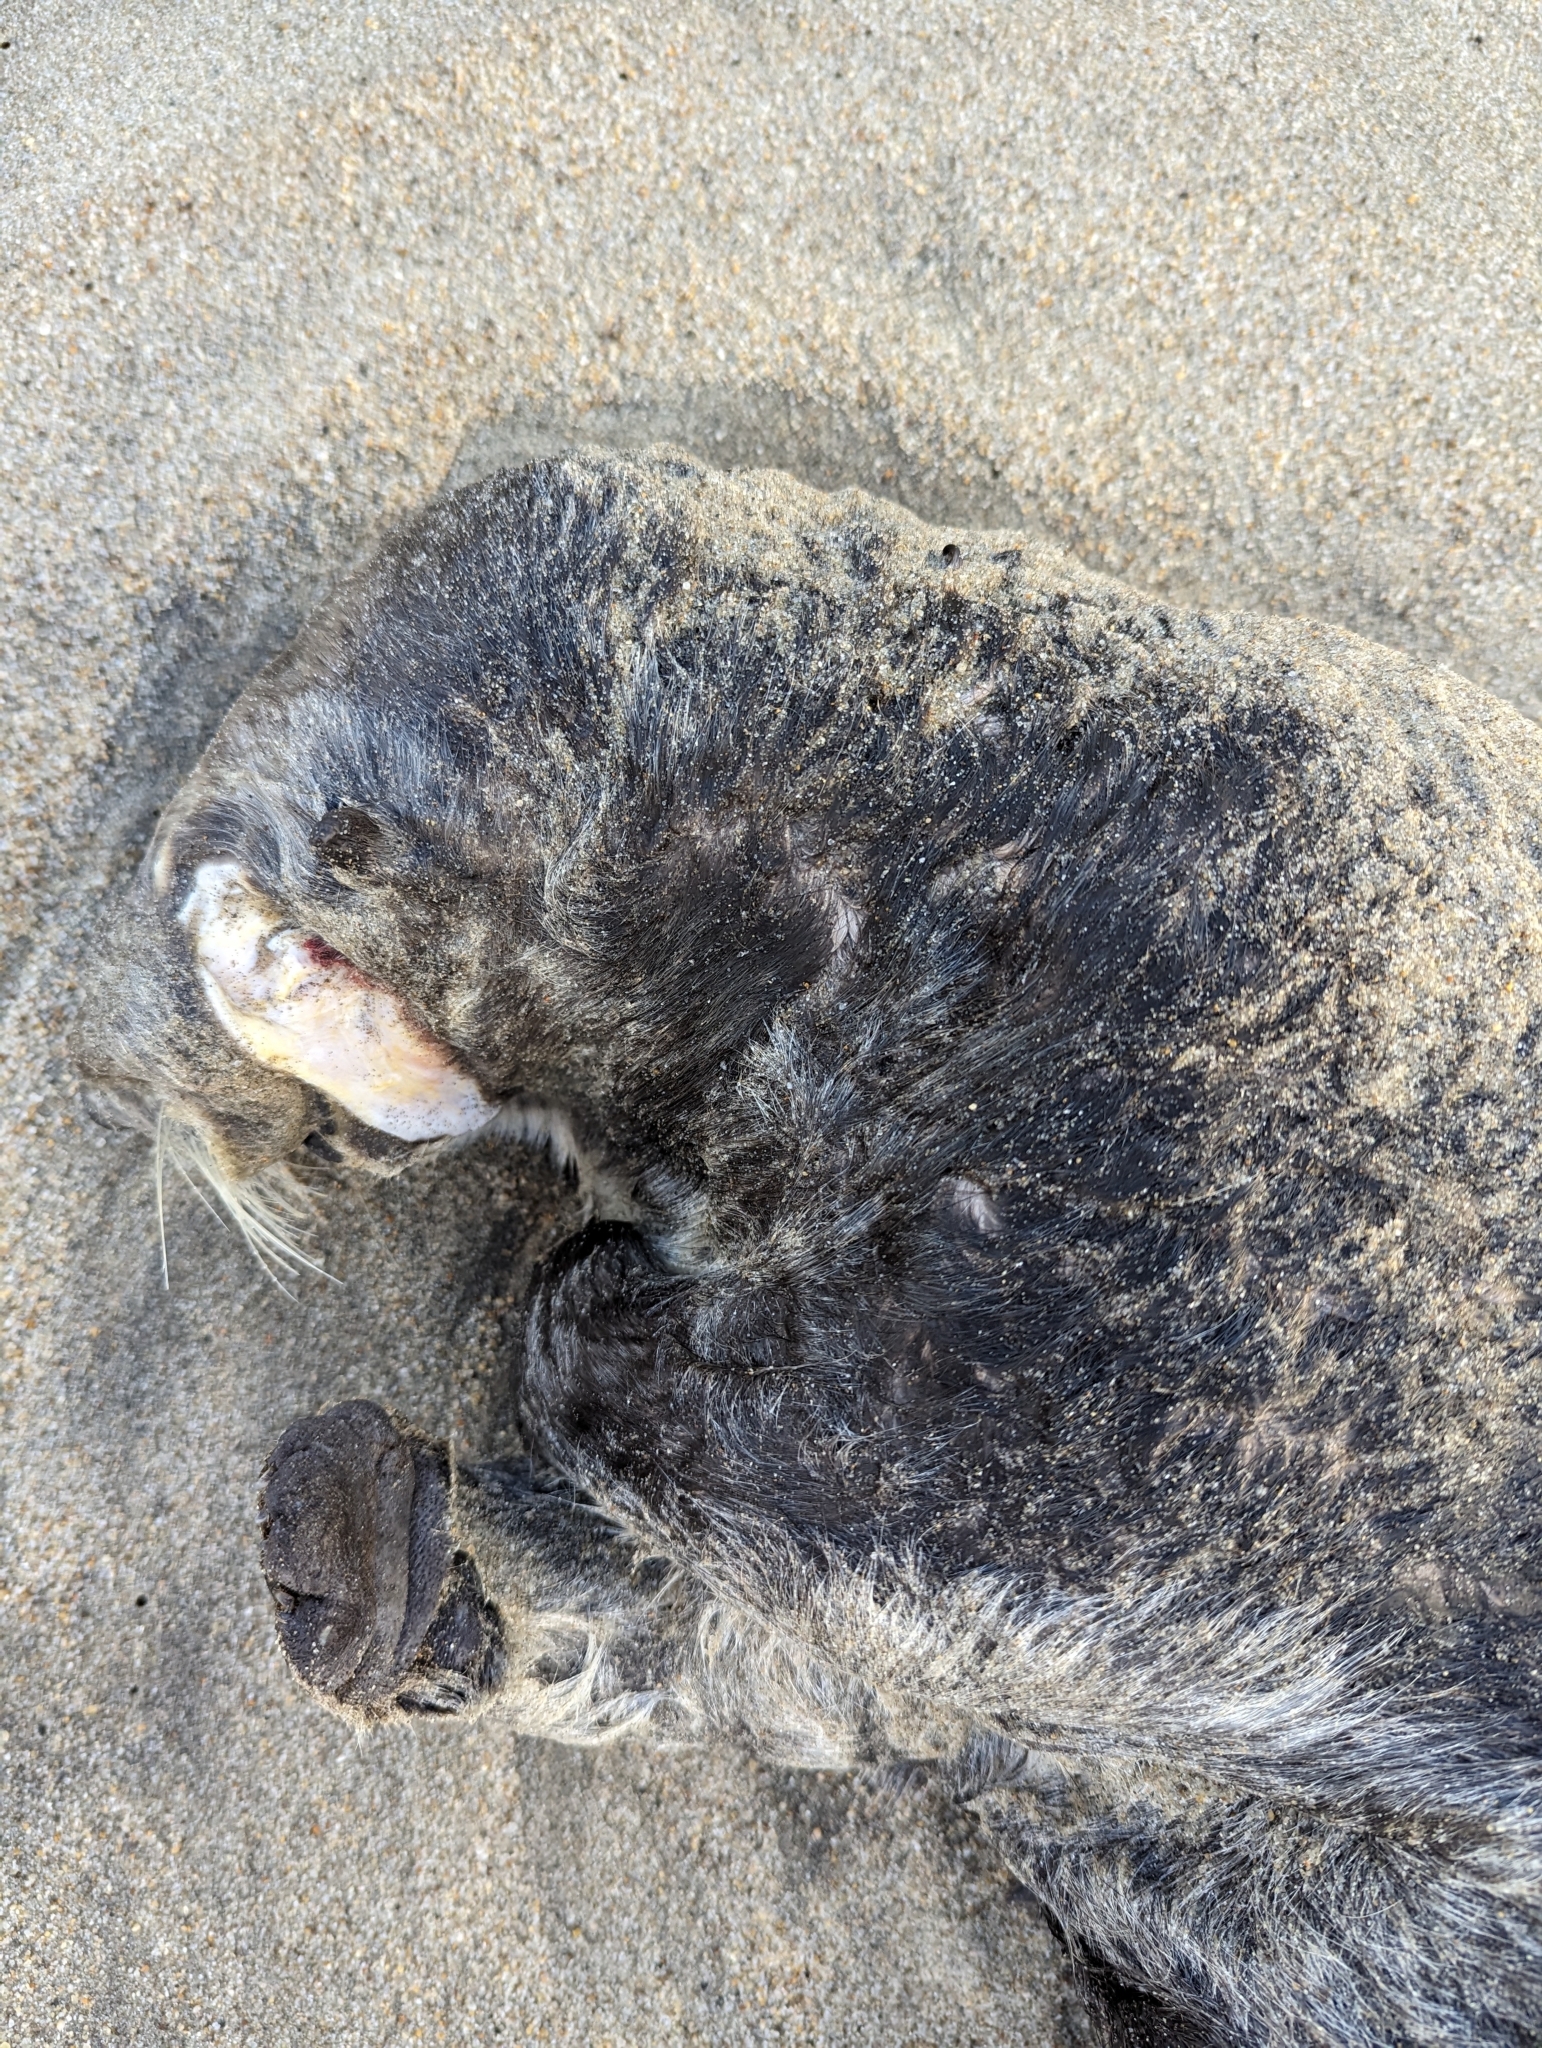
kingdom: Animalia
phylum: Chordata
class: Mammalia
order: Carnivora
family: Mustelidae
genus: Enhydra
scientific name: Enhydra lutris
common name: Sea otter
